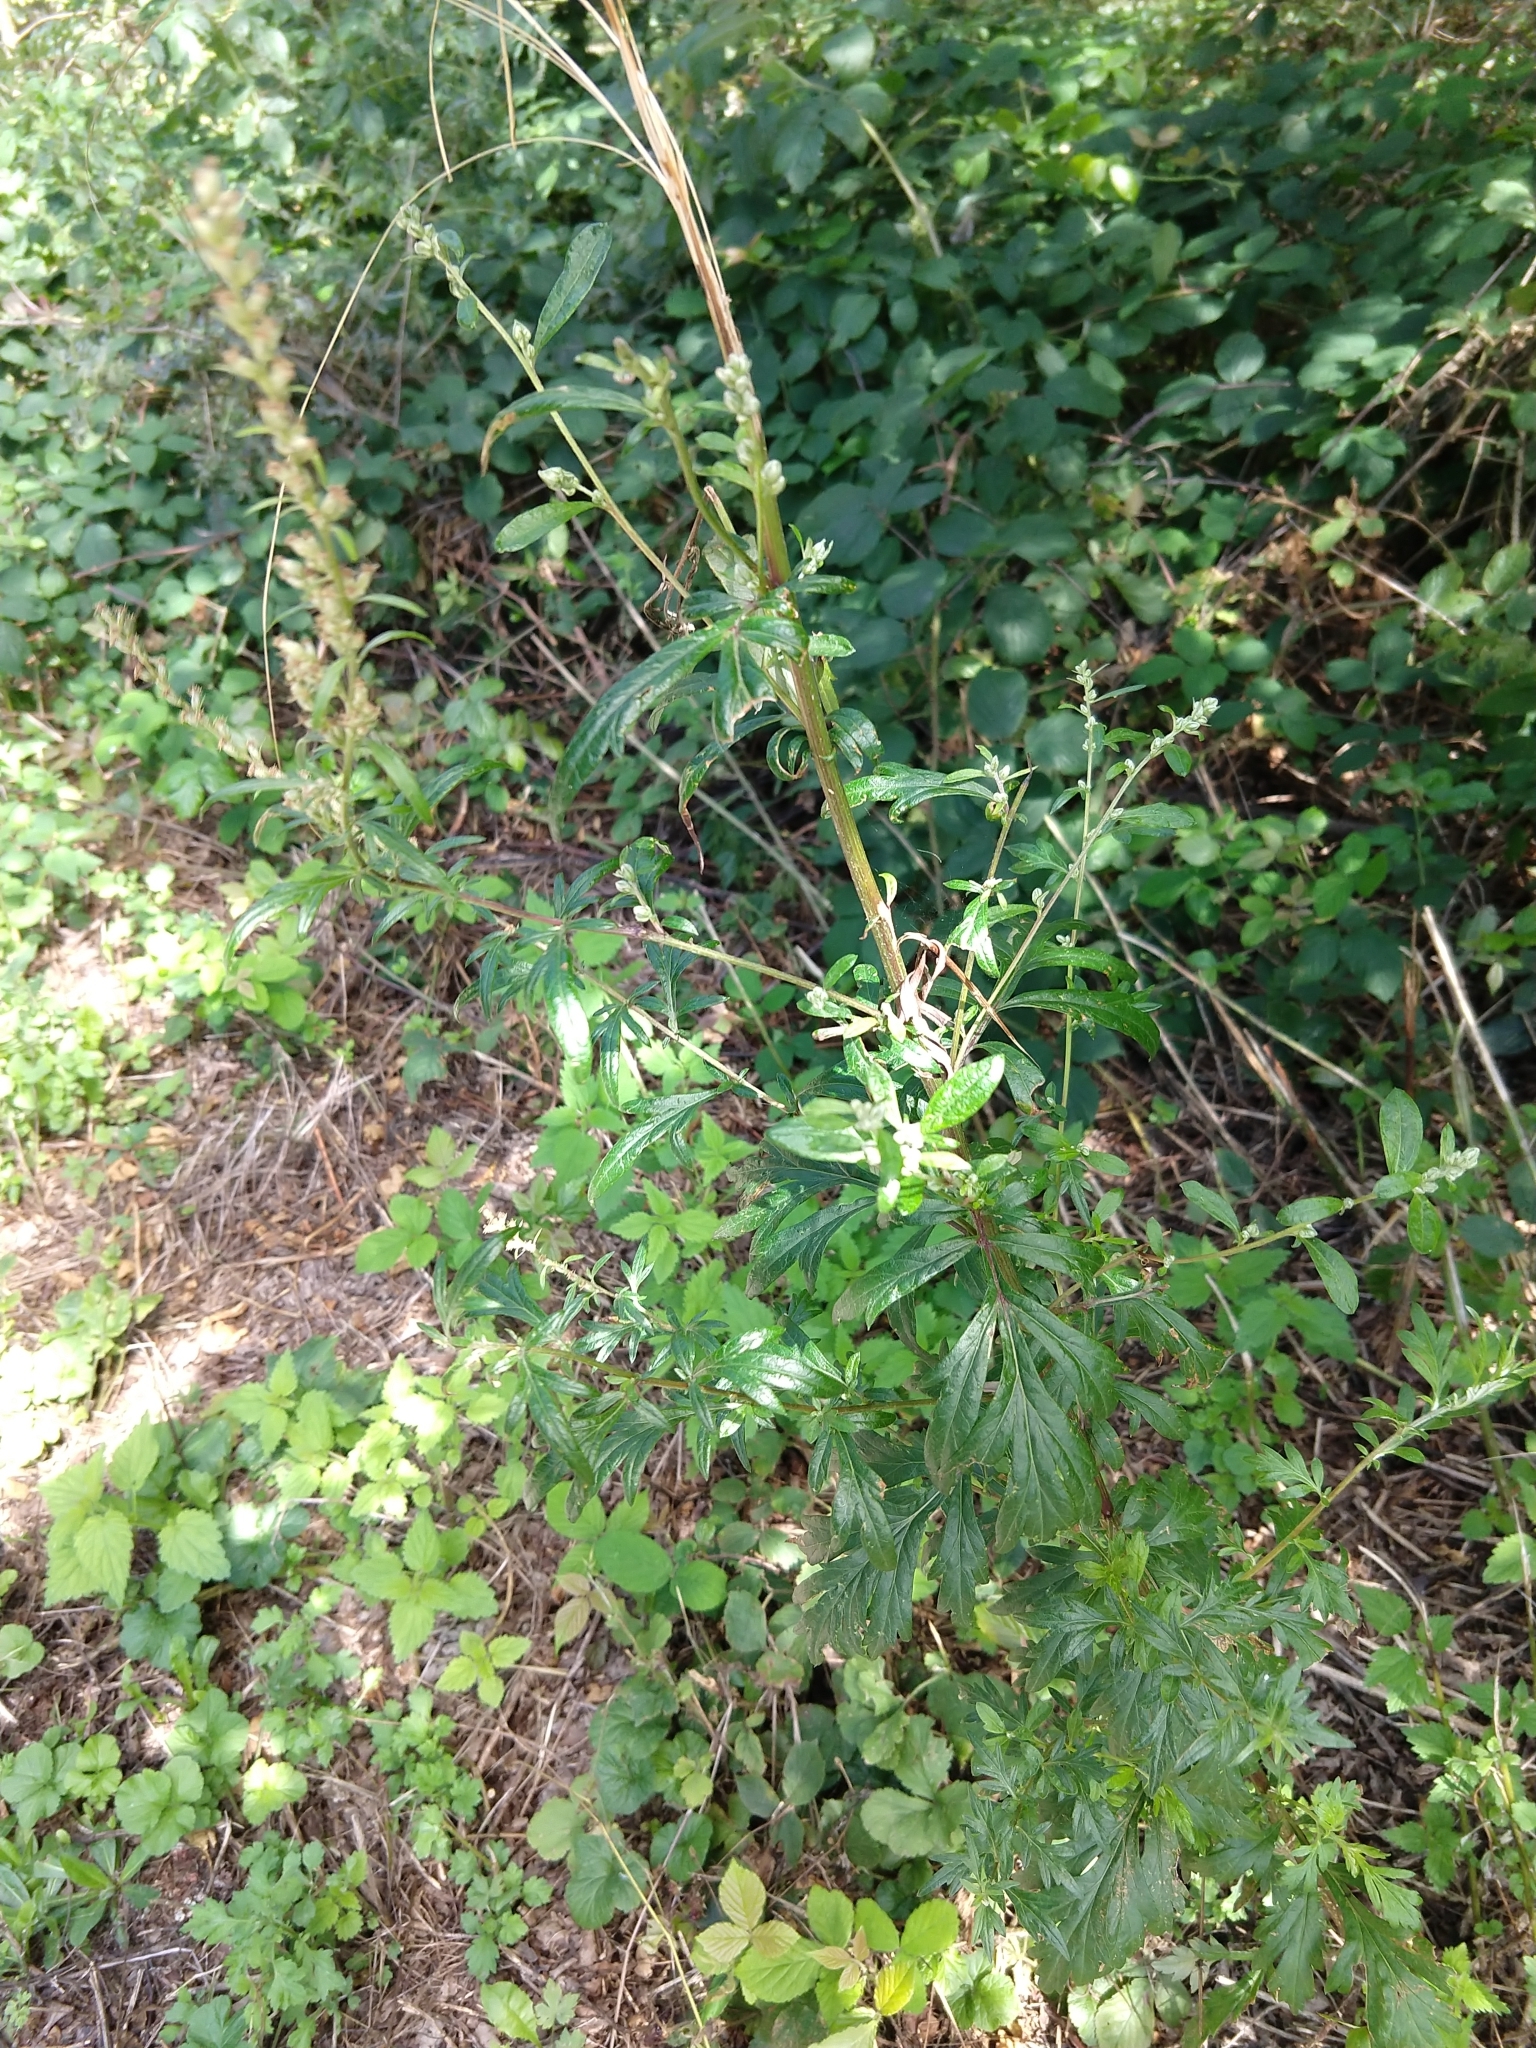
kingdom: Plantae
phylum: Tracheophyta
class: Magnoliopsida
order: Asterales
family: Asteraceae
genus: Artemisia
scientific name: Artemisia vulgaris
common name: Mugwort
